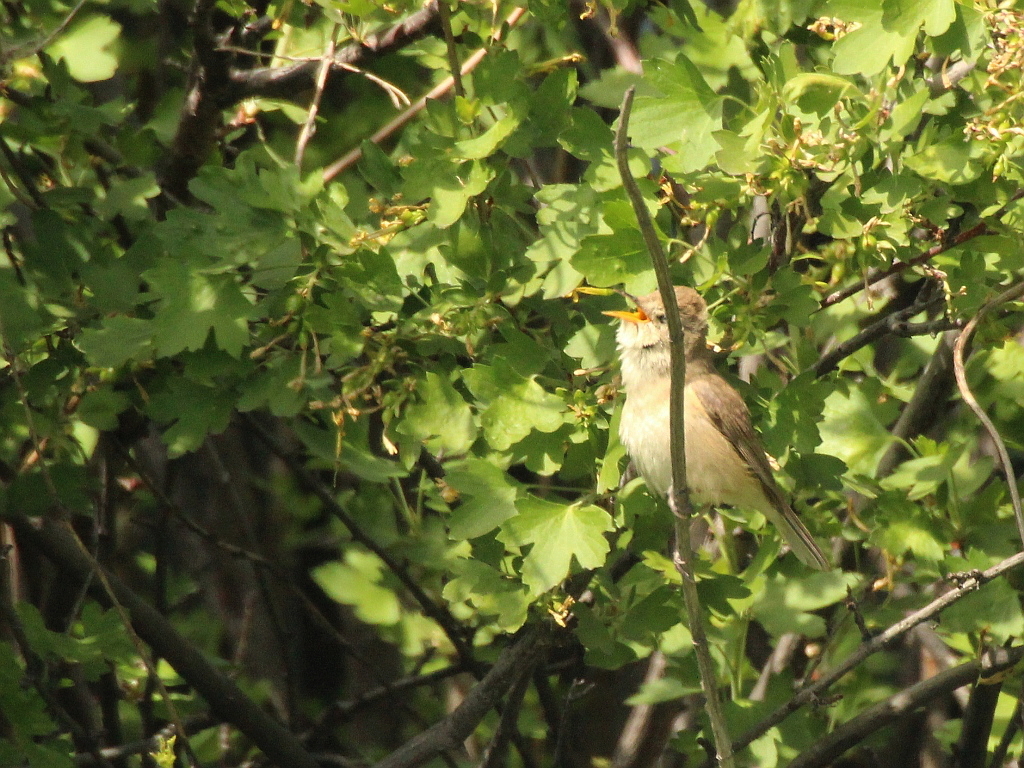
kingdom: Animalia
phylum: Chordata
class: Aves
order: Passeriformes
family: Acrocephalidae
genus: Iduna
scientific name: Iduna caligata
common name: Booted warbler
